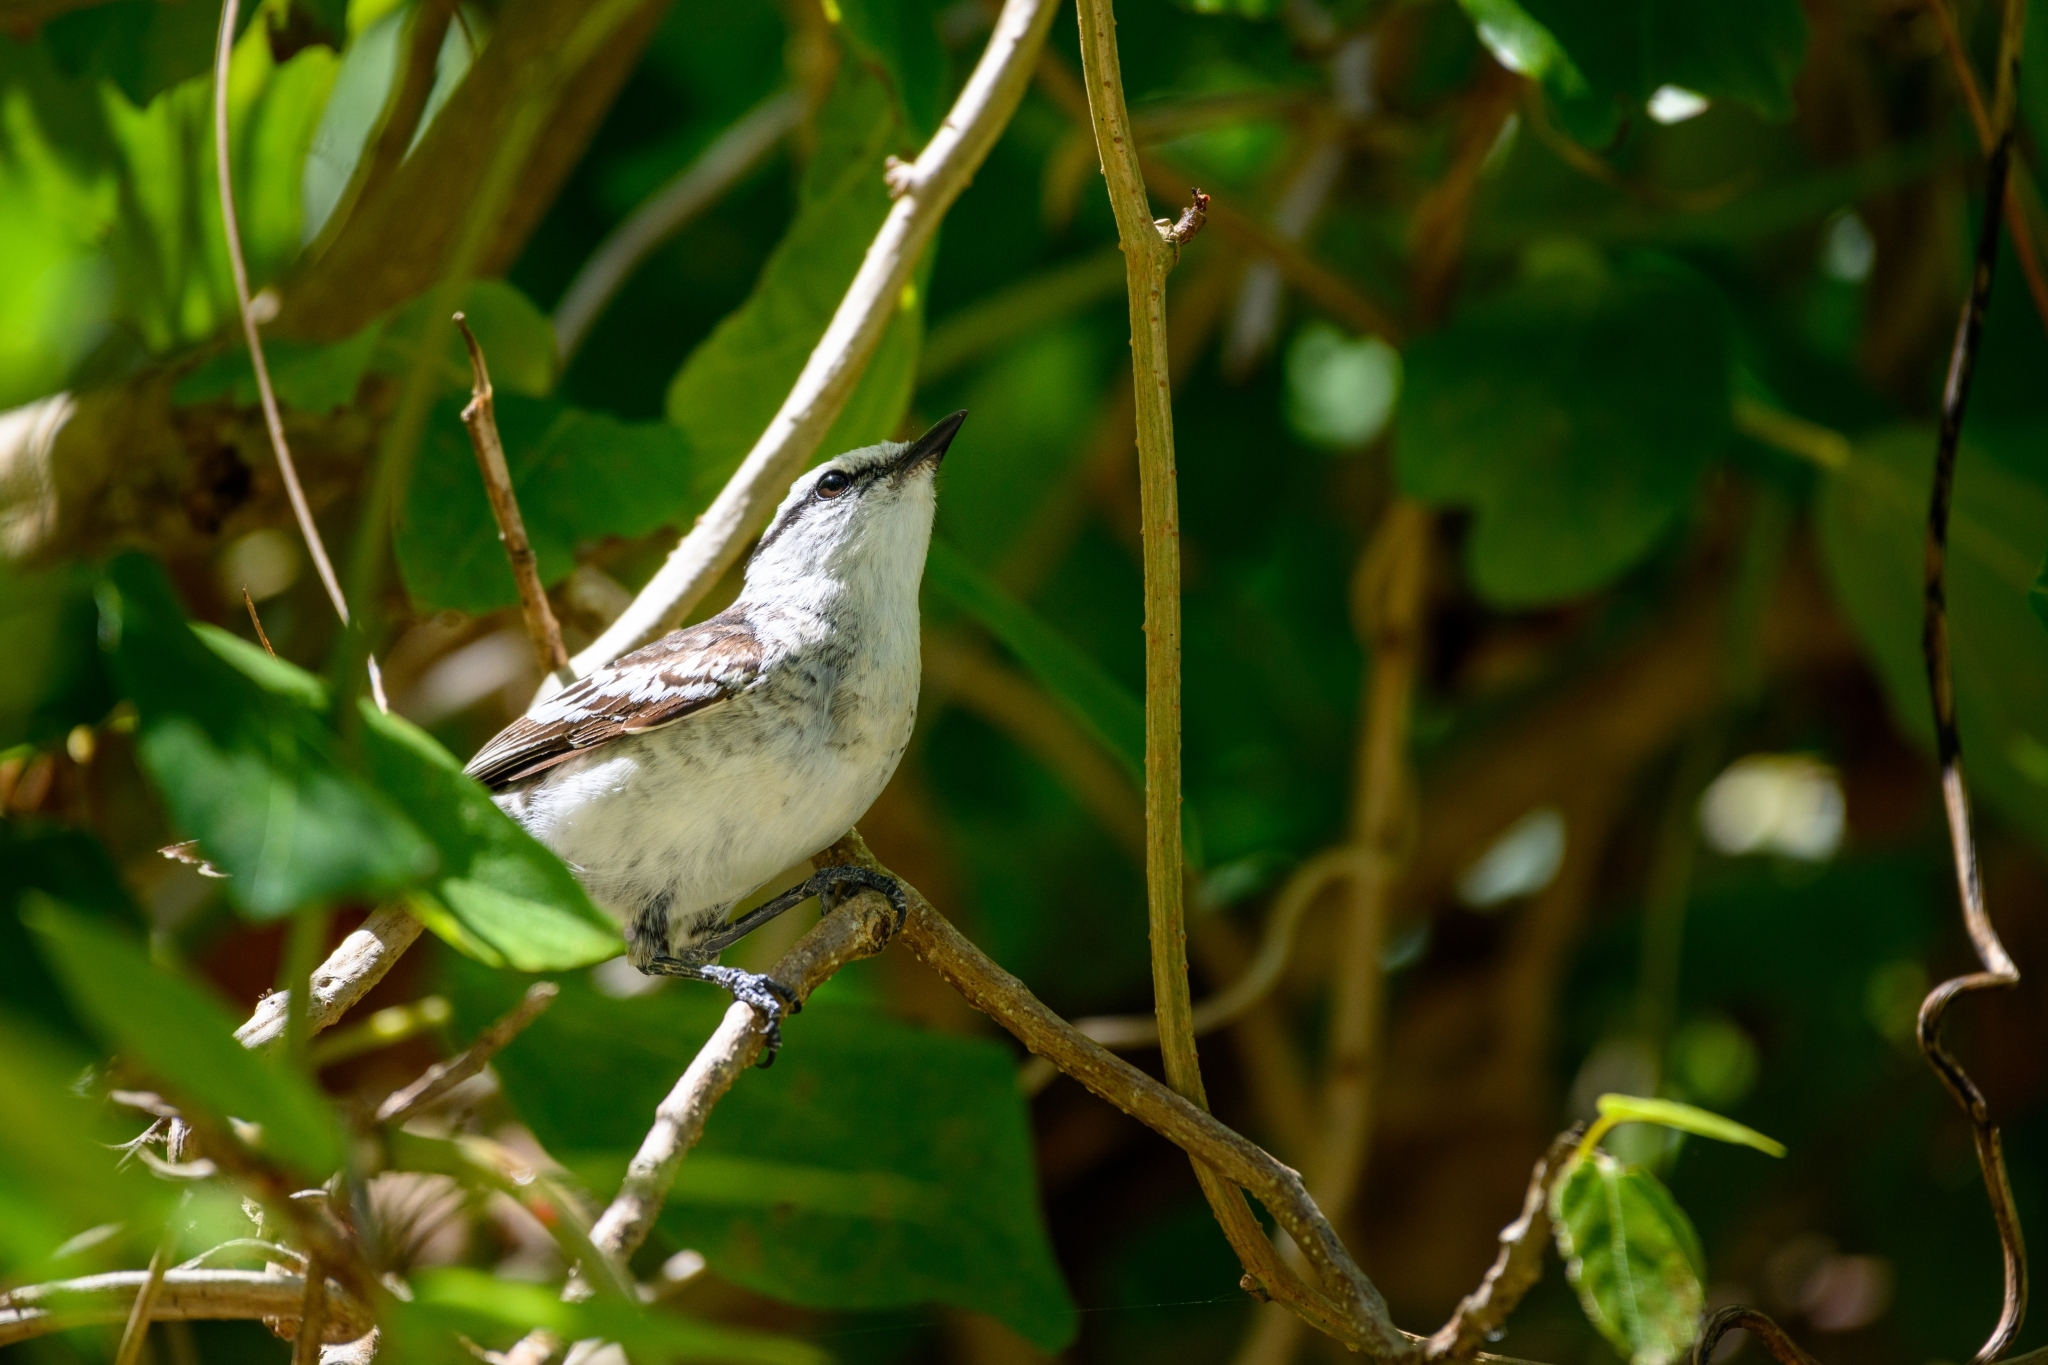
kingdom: Animalia
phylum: Chordata
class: Aves
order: Passeriformes
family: Campephagidae
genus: Lalage
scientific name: Lalage maculosa
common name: Polynesian triller
